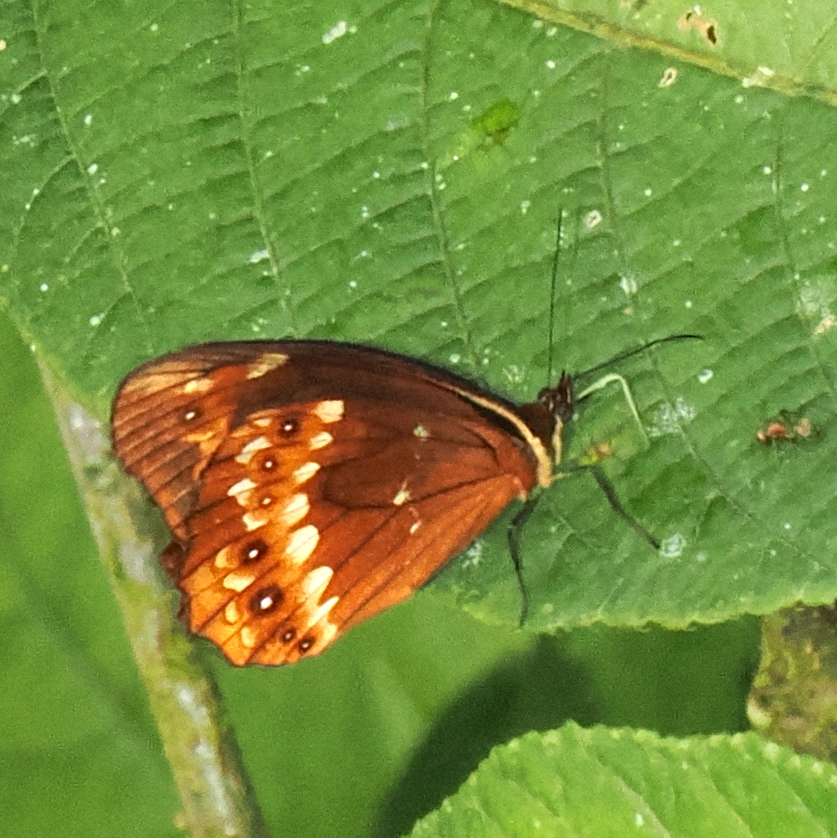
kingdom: Animalia
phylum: Arthropoda
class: Insecta
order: Lepidoptera
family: Nymphalidae
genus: Oxeoschistus
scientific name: Oxeoschistus protogenia
